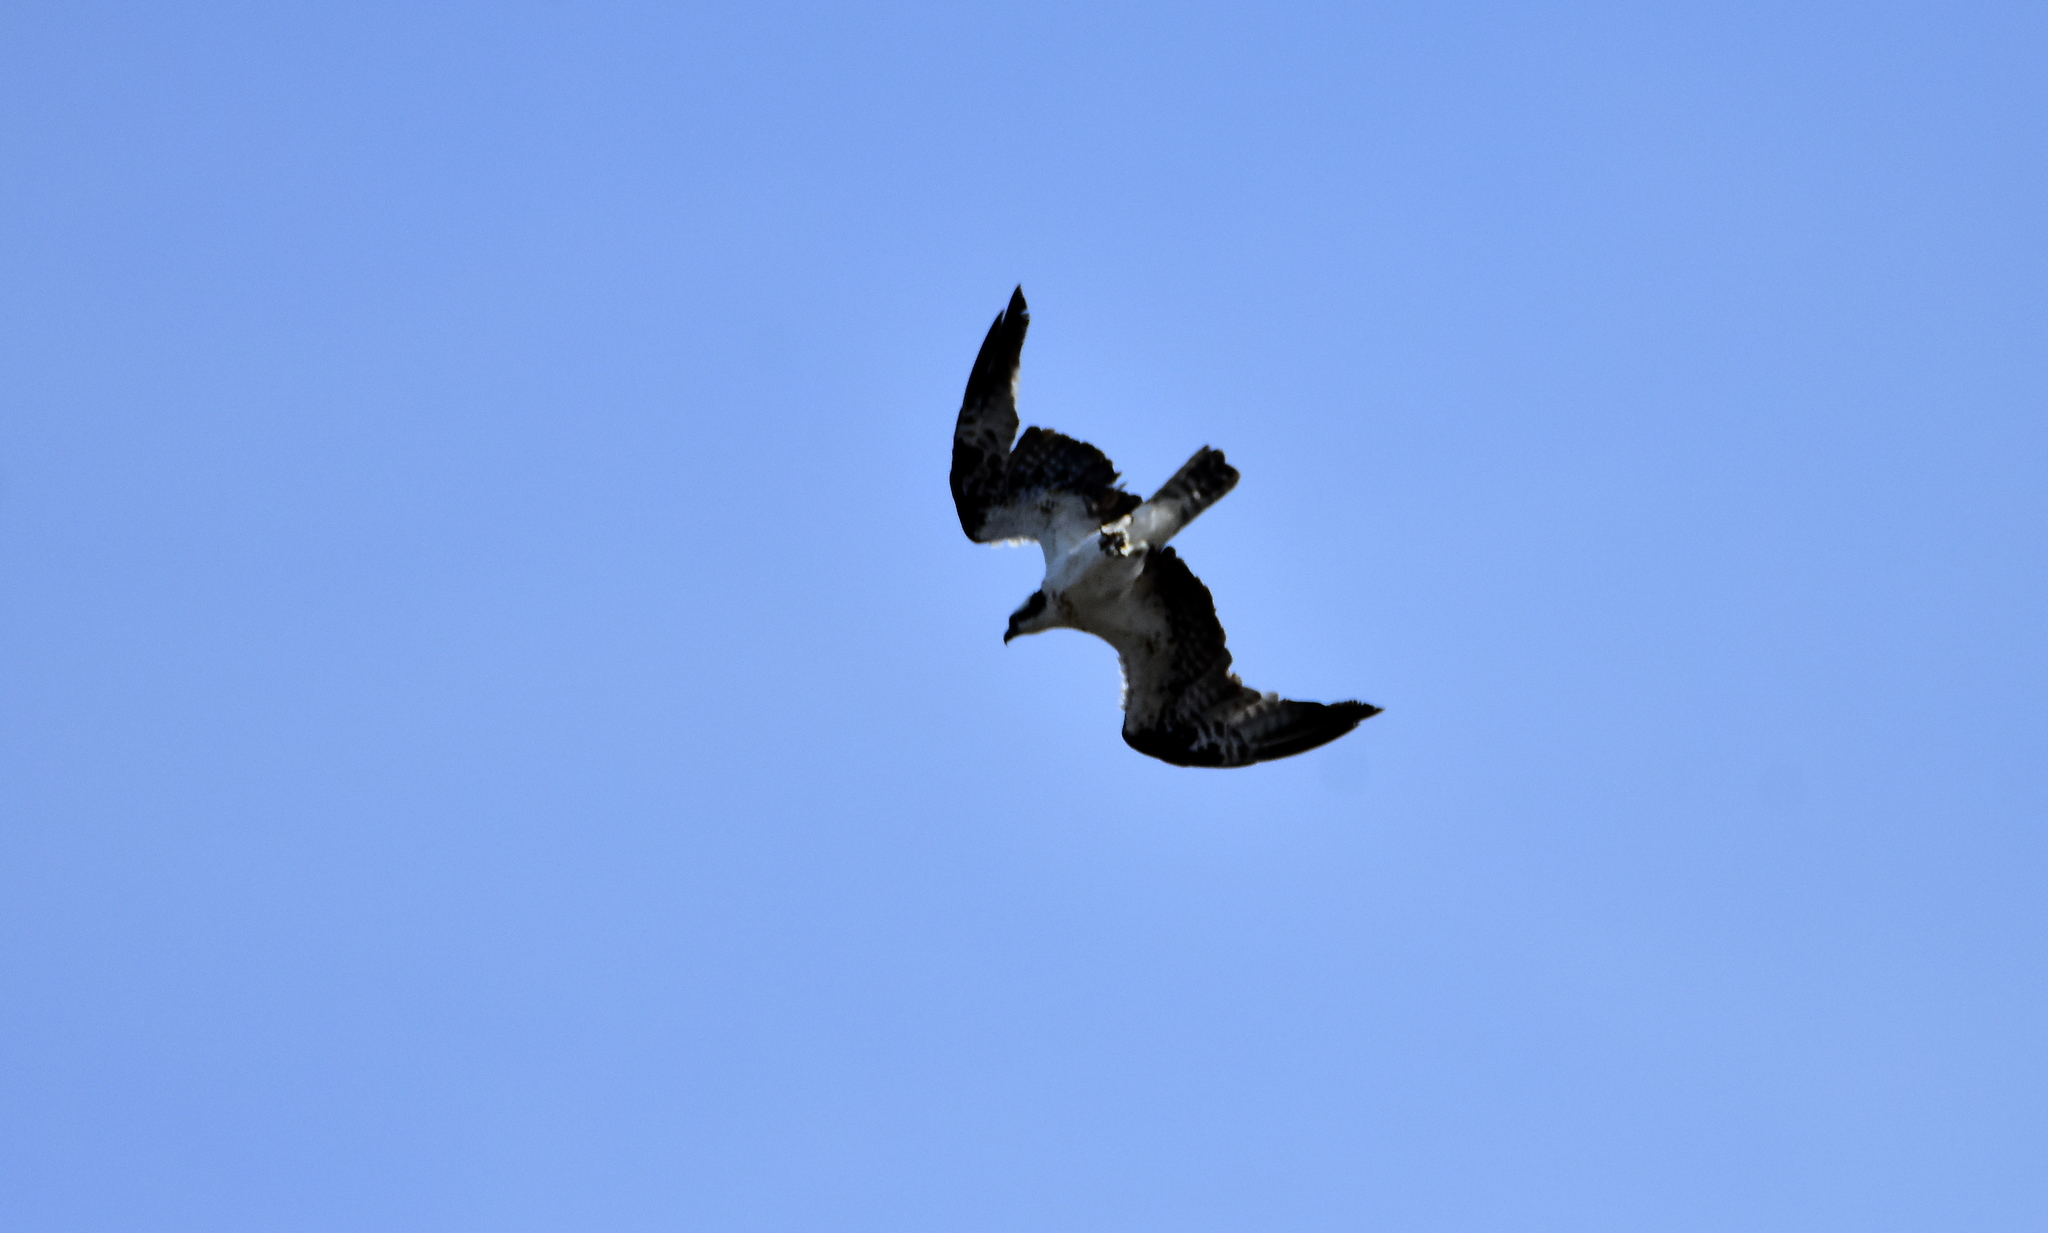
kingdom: Animalia
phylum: Chordata
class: Aves
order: Accipitriformes
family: Pandionidae
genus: Pandion
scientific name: Pandion haliaetus
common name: Osprey
